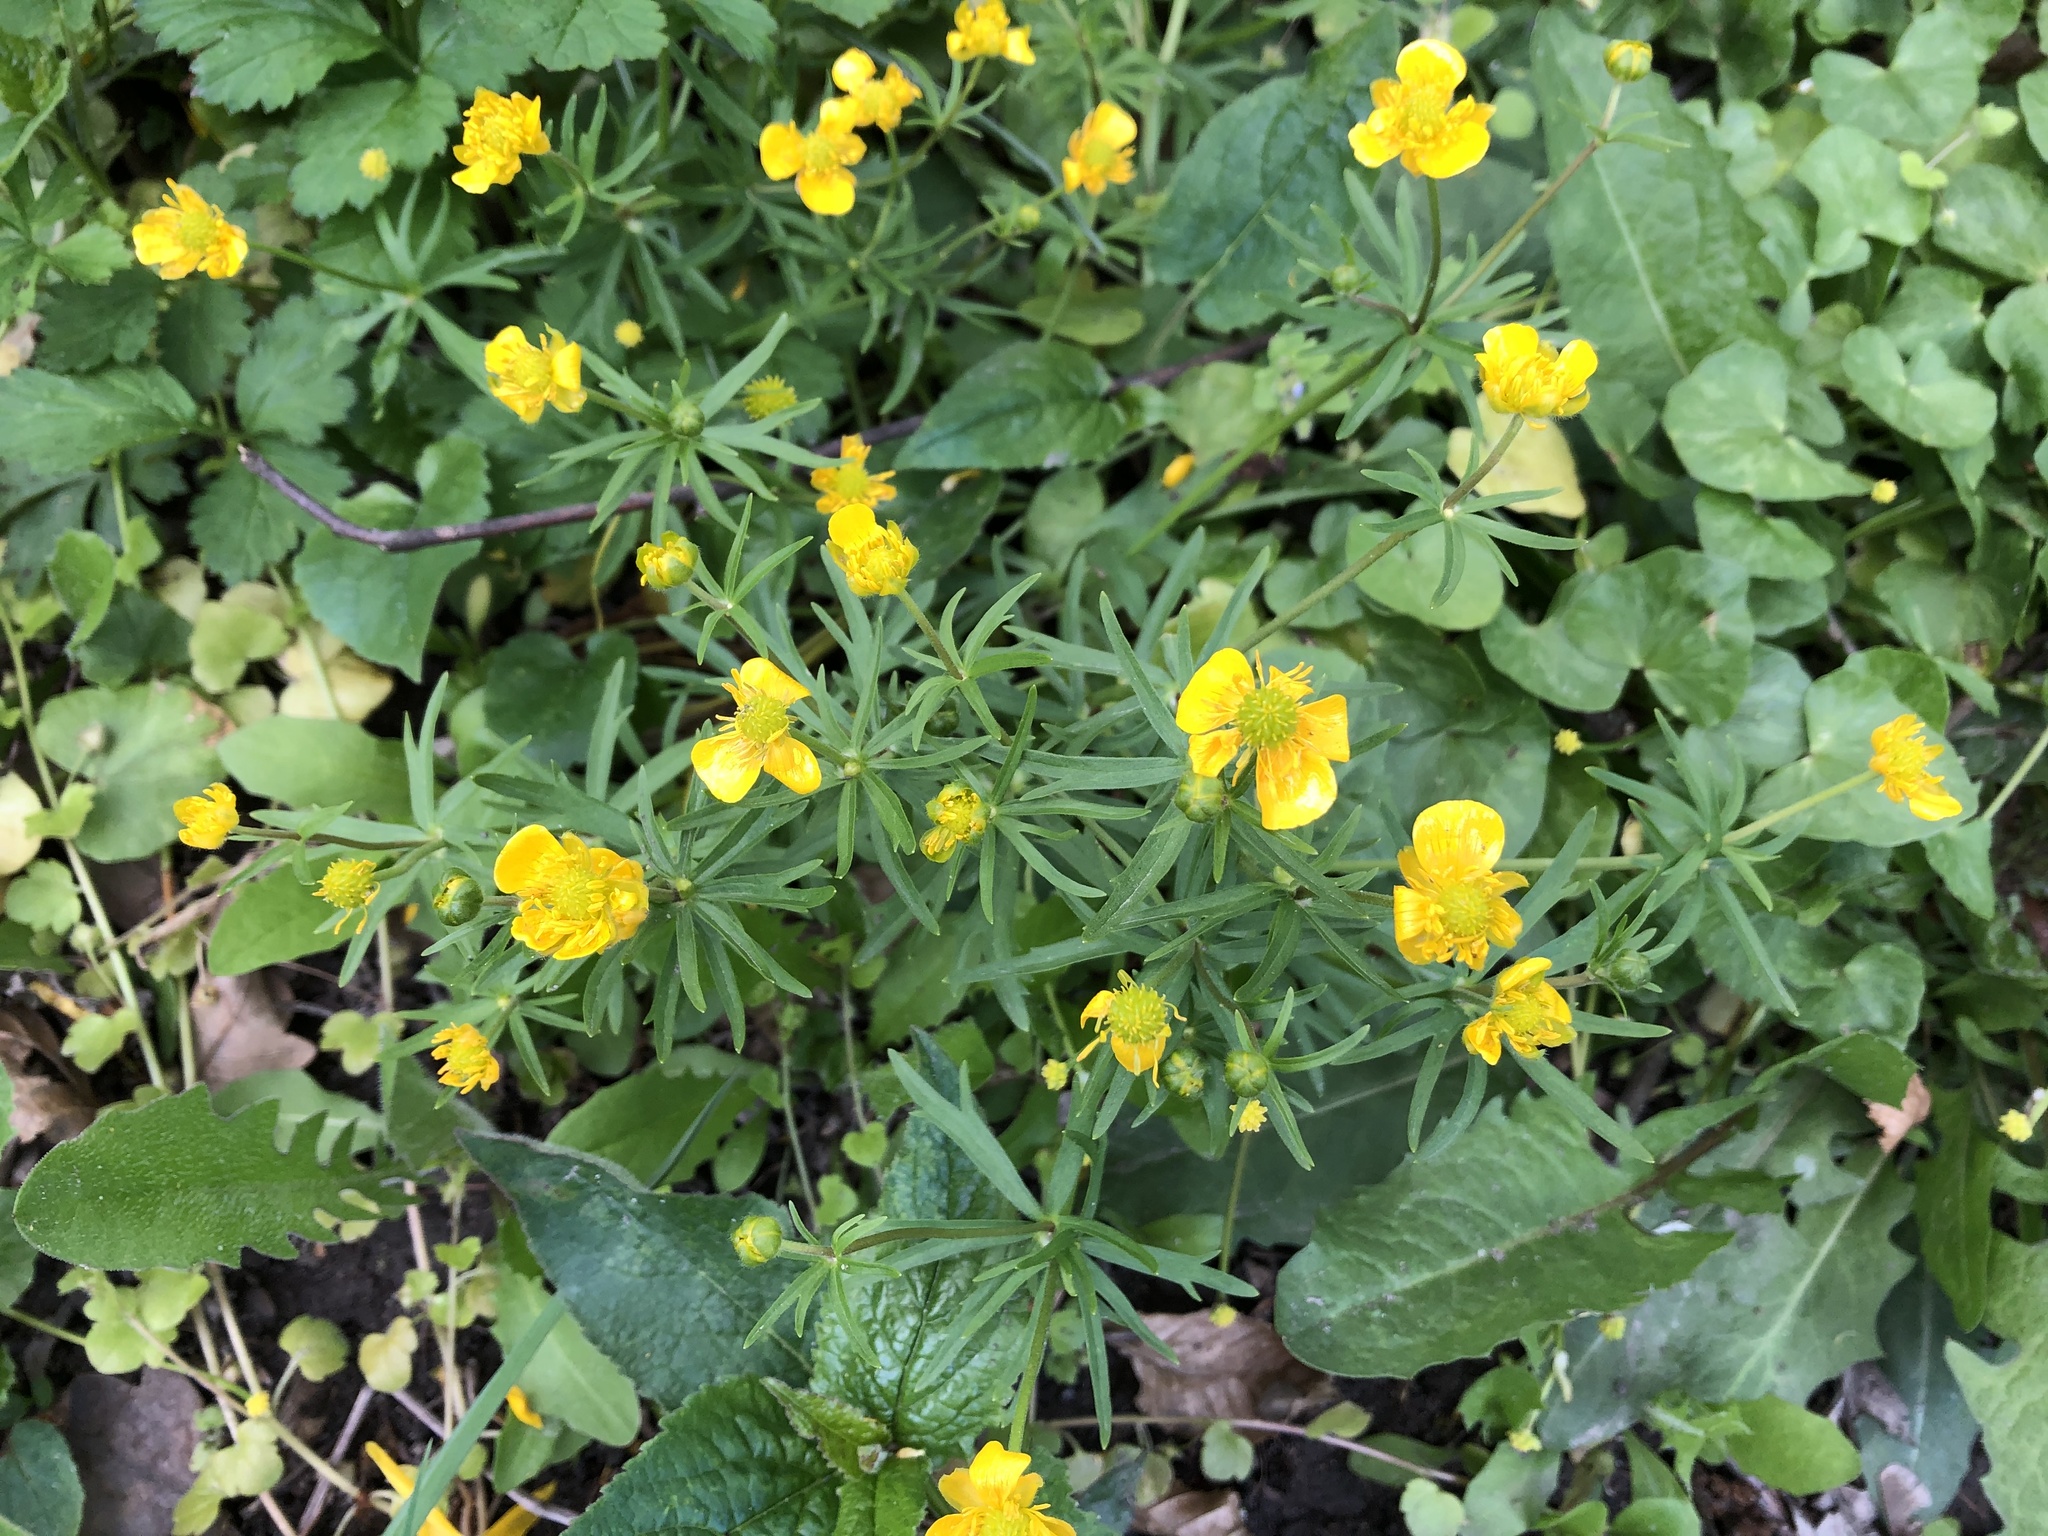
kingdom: Plantae
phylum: Tracheophyta
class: Magnoliopsida
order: Ranunculales
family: Ranunculaceae
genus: Ranunculus
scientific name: Ranunculus auricomus
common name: Goldilocks buttercup
